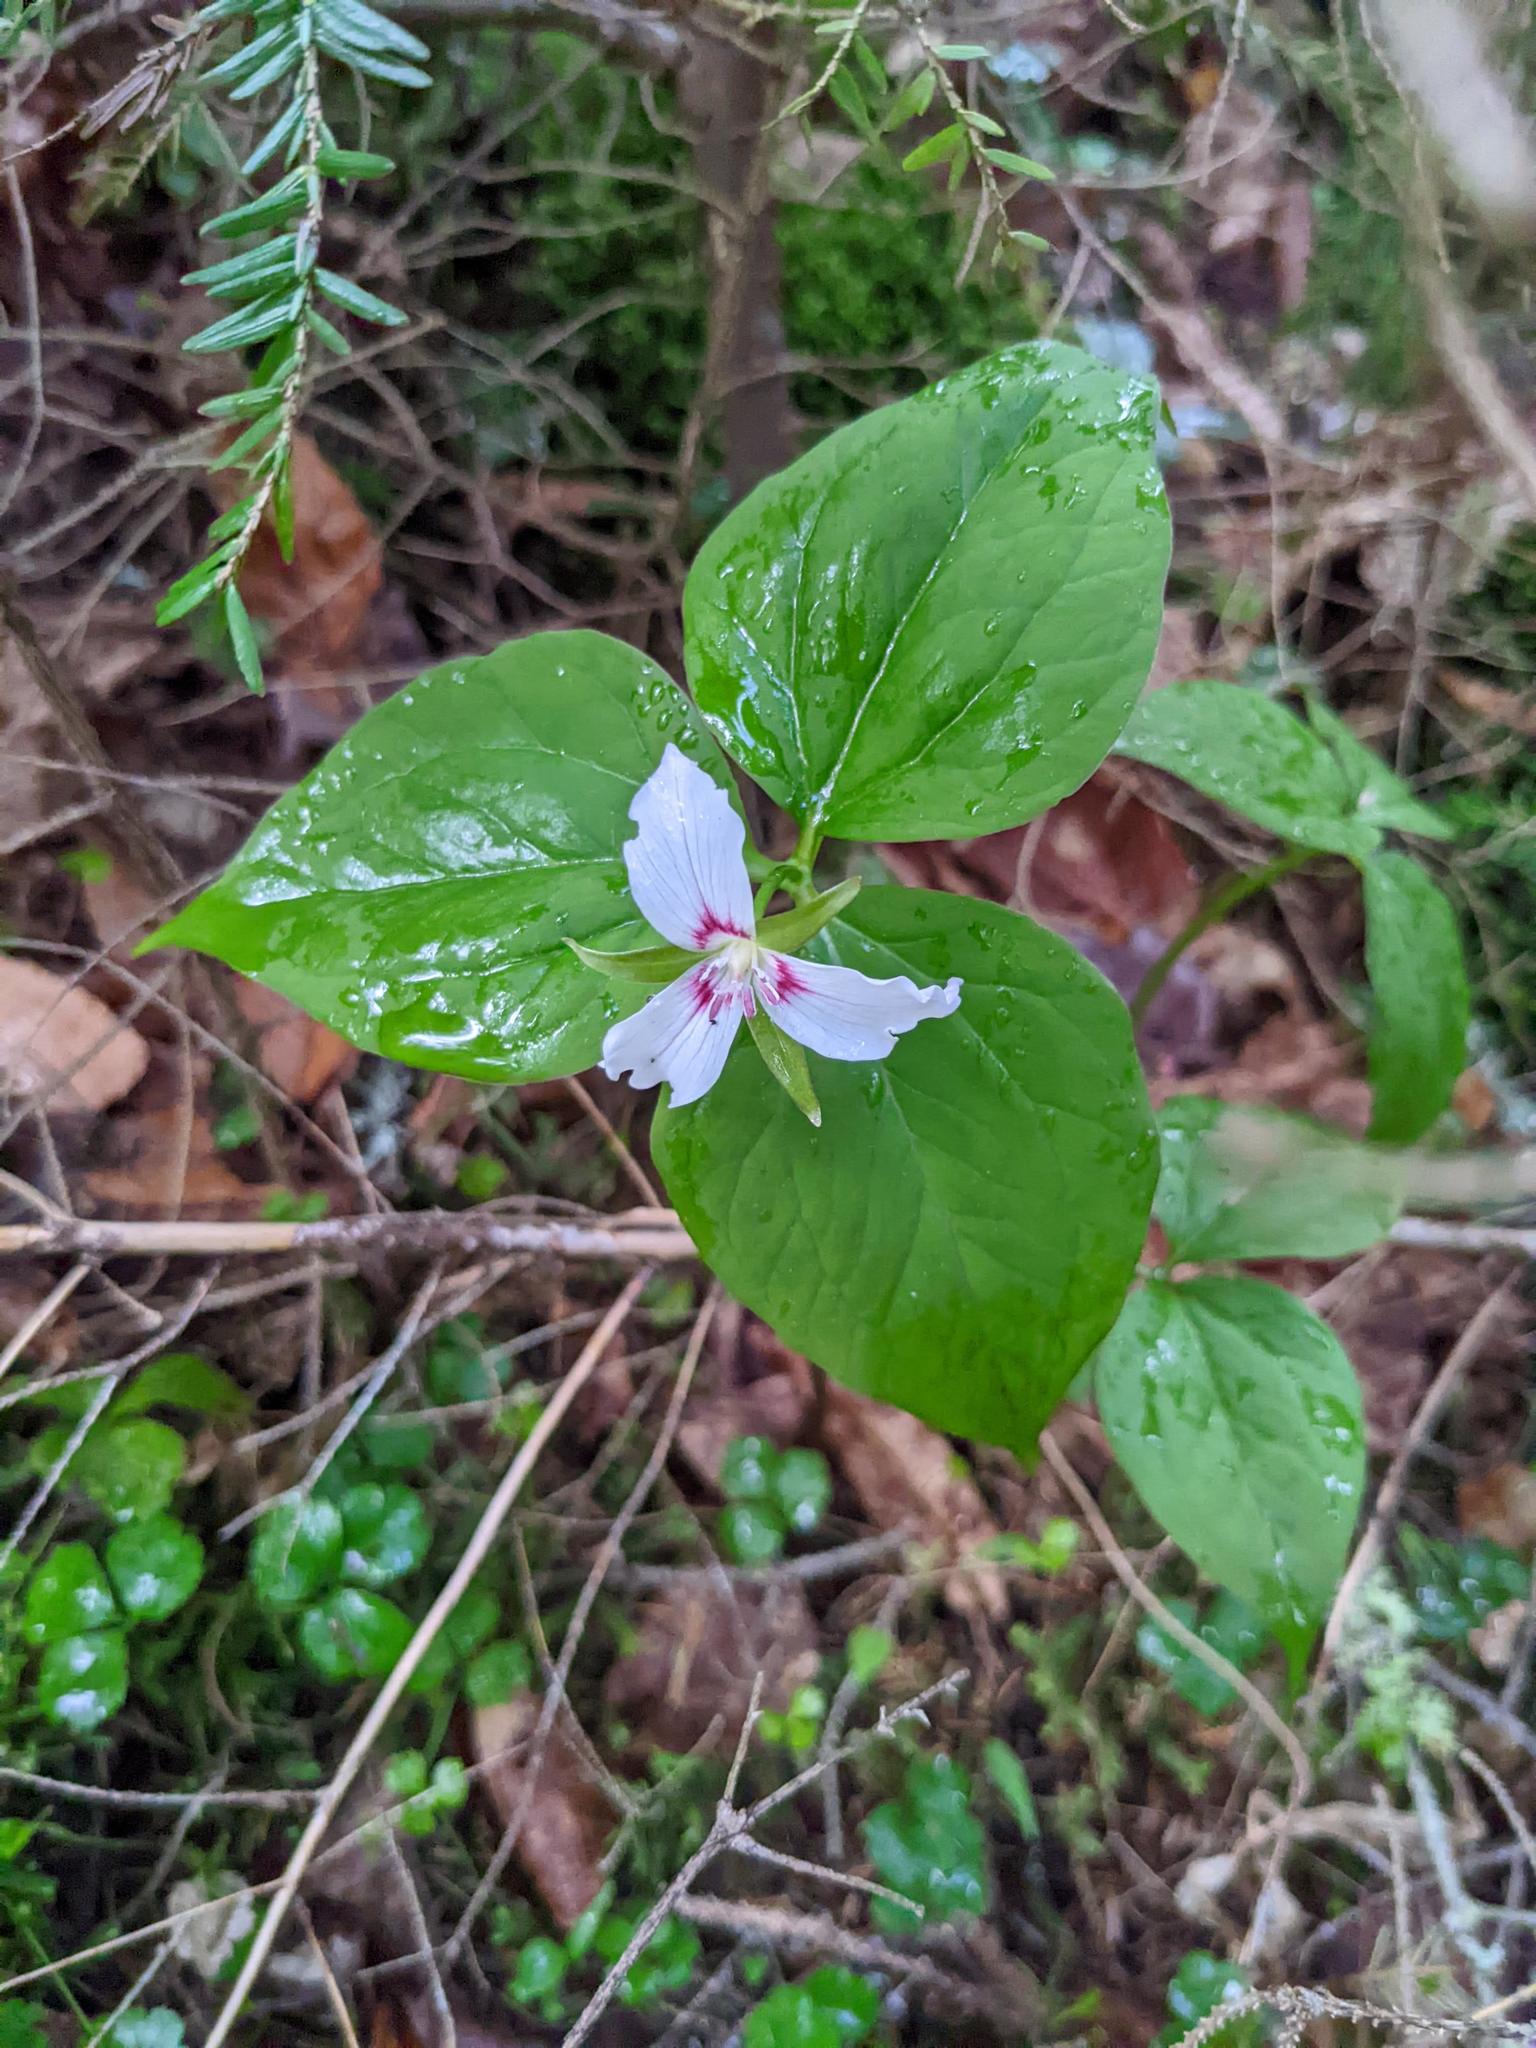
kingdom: Plantae
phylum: Tracheophyta
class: Liliopsida
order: Liliales
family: Melanthiaceae
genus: Trillium
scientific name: Trillium undulatum
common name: Paint trillium
